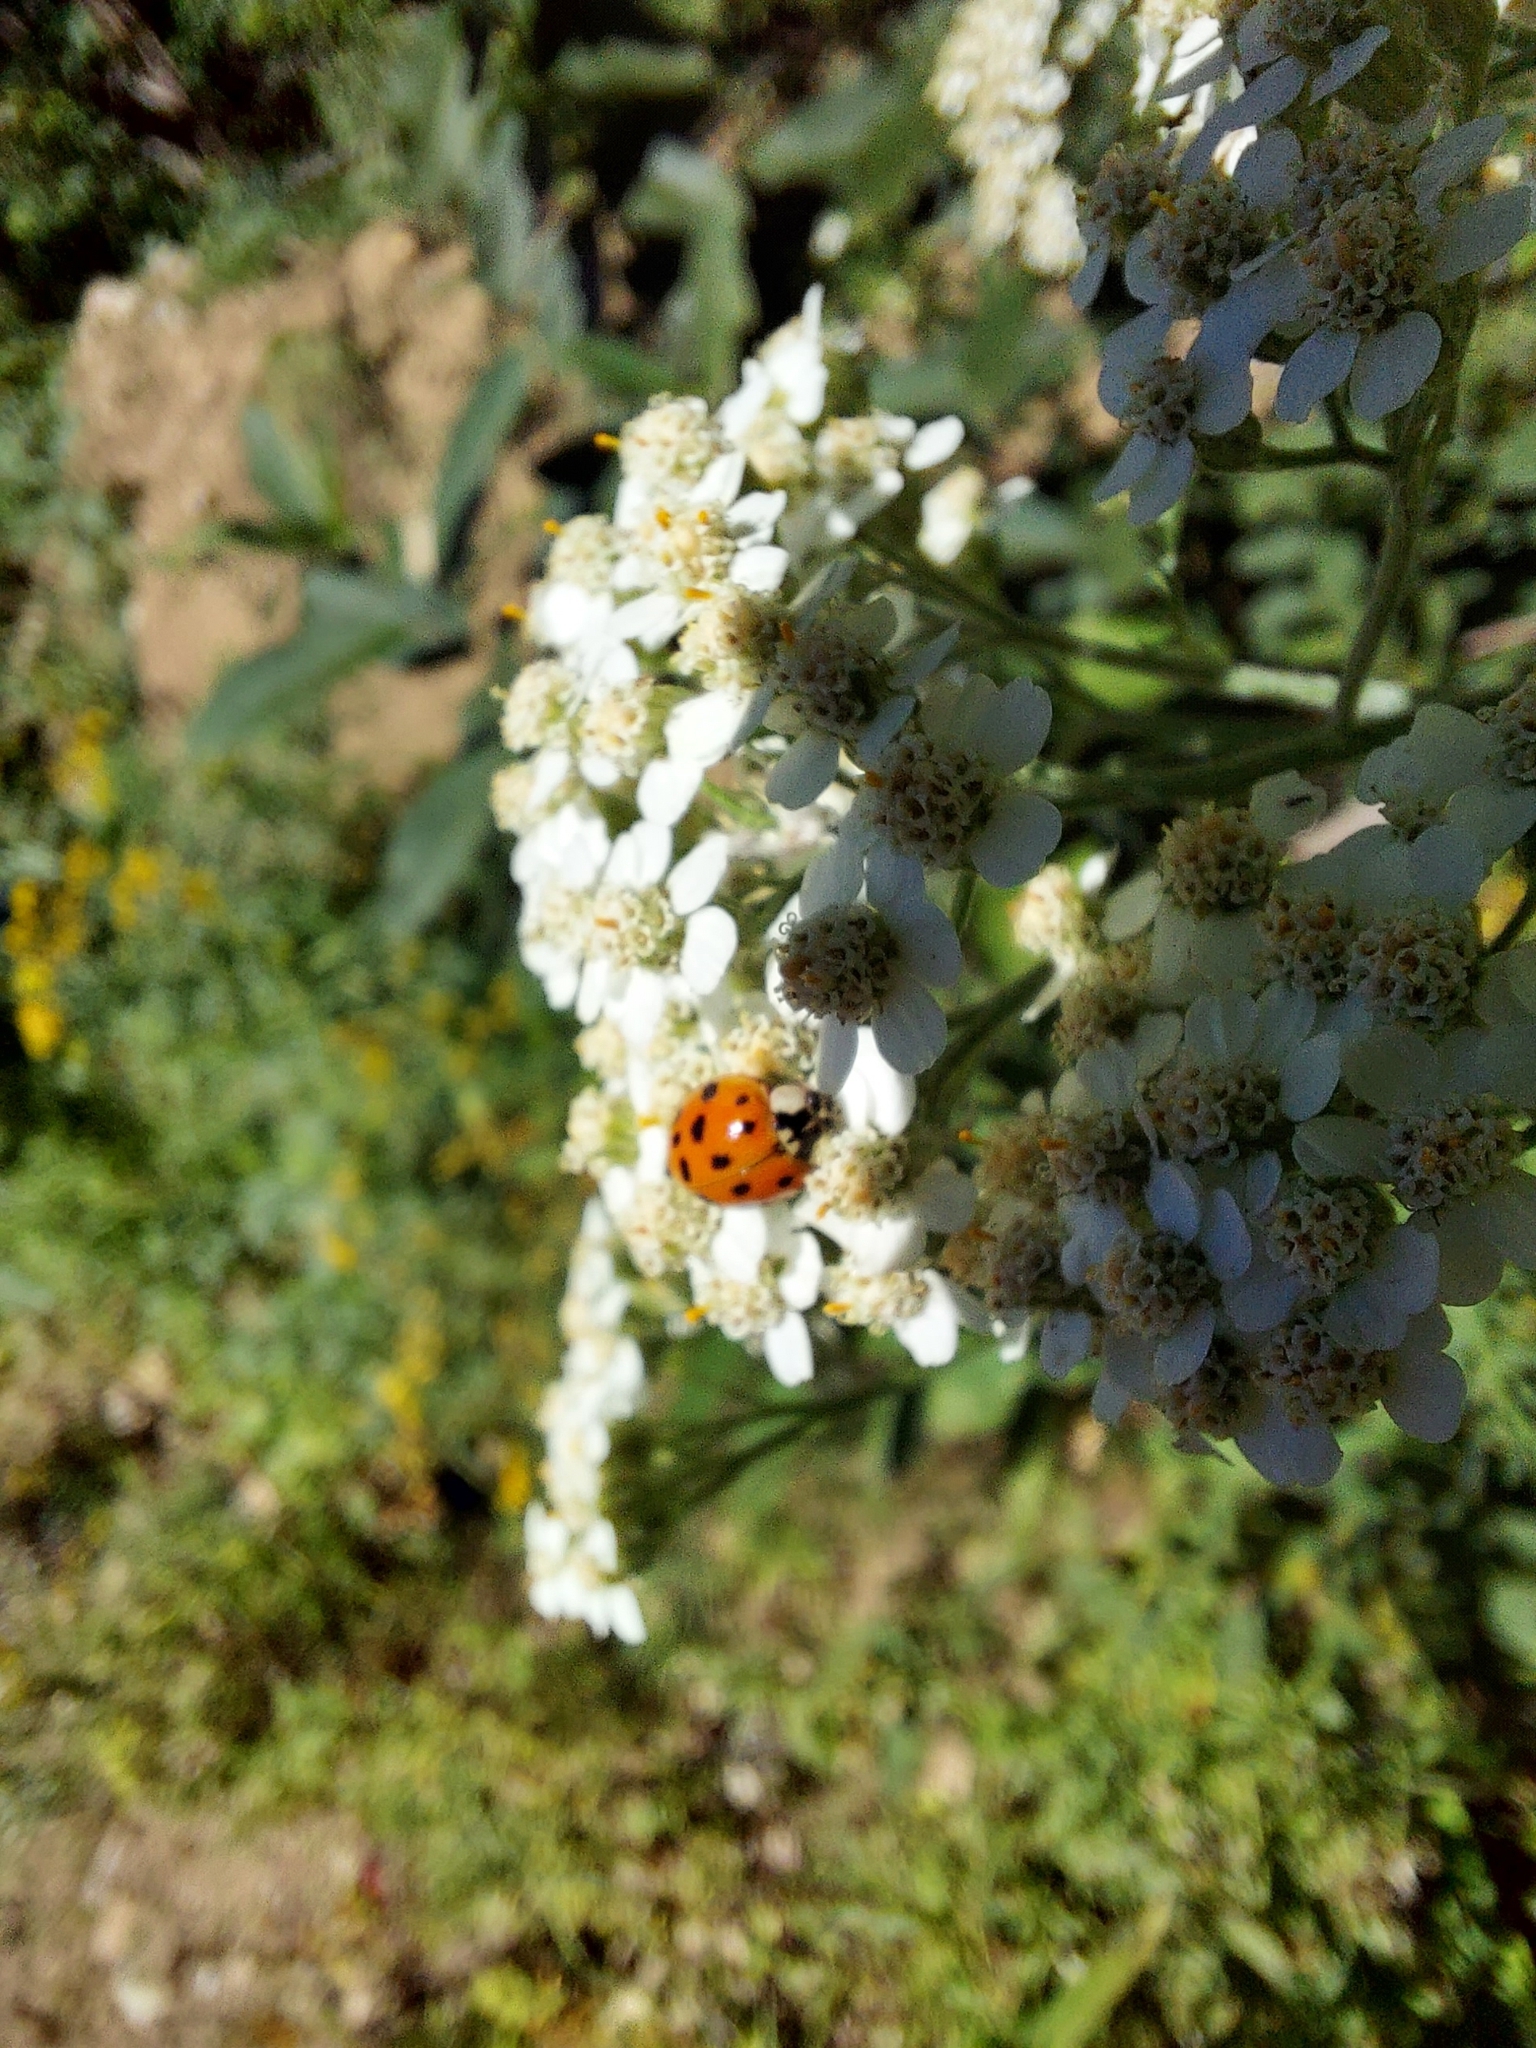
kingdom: Animalia
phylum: Arthropoda
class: Insecta
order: Coleoptera
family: Coccinellidae
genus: Harmonia
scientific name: Harmonia axyridis
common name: Harlequin ladybird
